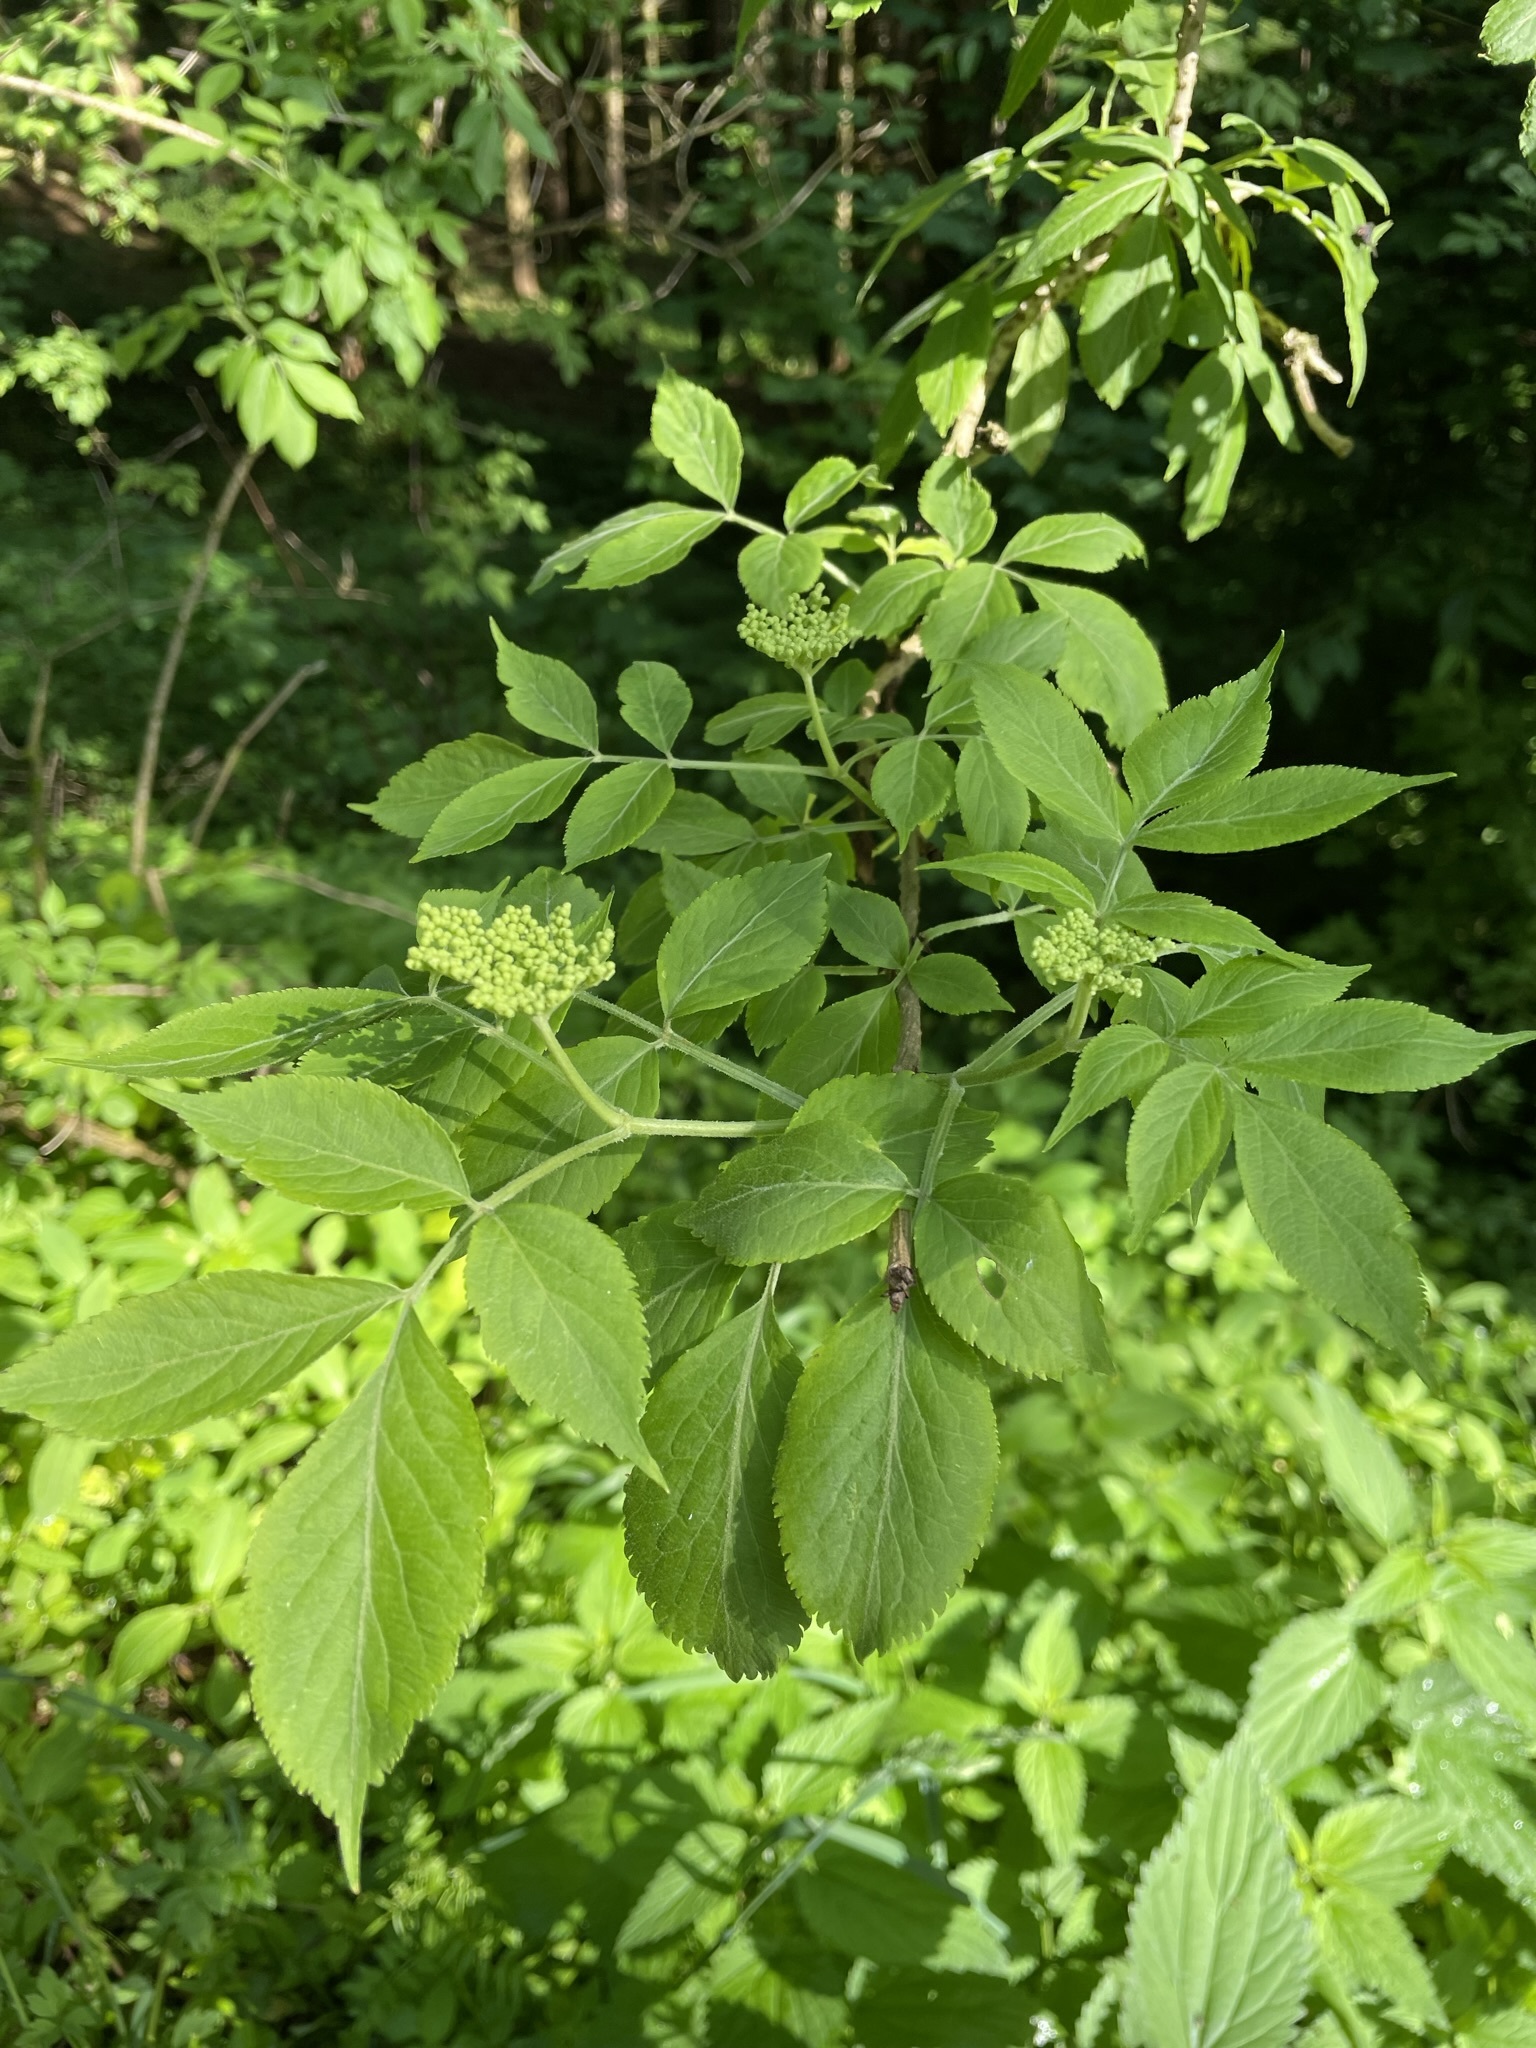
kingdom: Plantae
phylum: Tracheophyta
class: Magnoliopsida
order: Dipsacales
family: Viburnaceae
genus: Sambucus
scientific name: Sambucus nigra
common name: Elder
